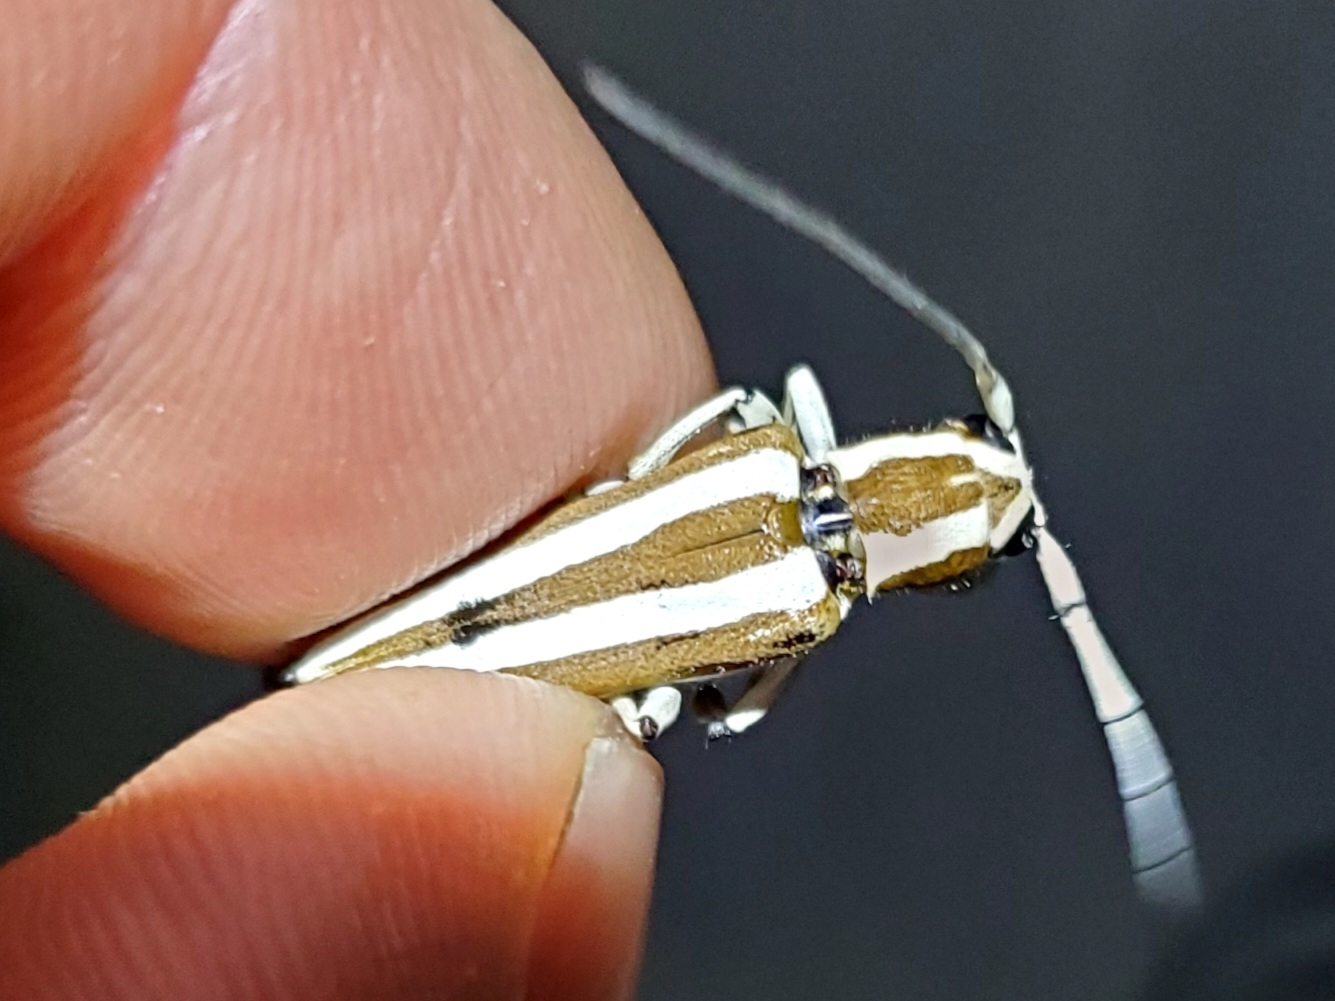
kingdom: Animalia
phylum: Arthropoda
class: Insecta
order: Coleoptera
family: Cerambycidae
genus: Saperda
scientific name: Saperda candida
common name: Round-headed borer
